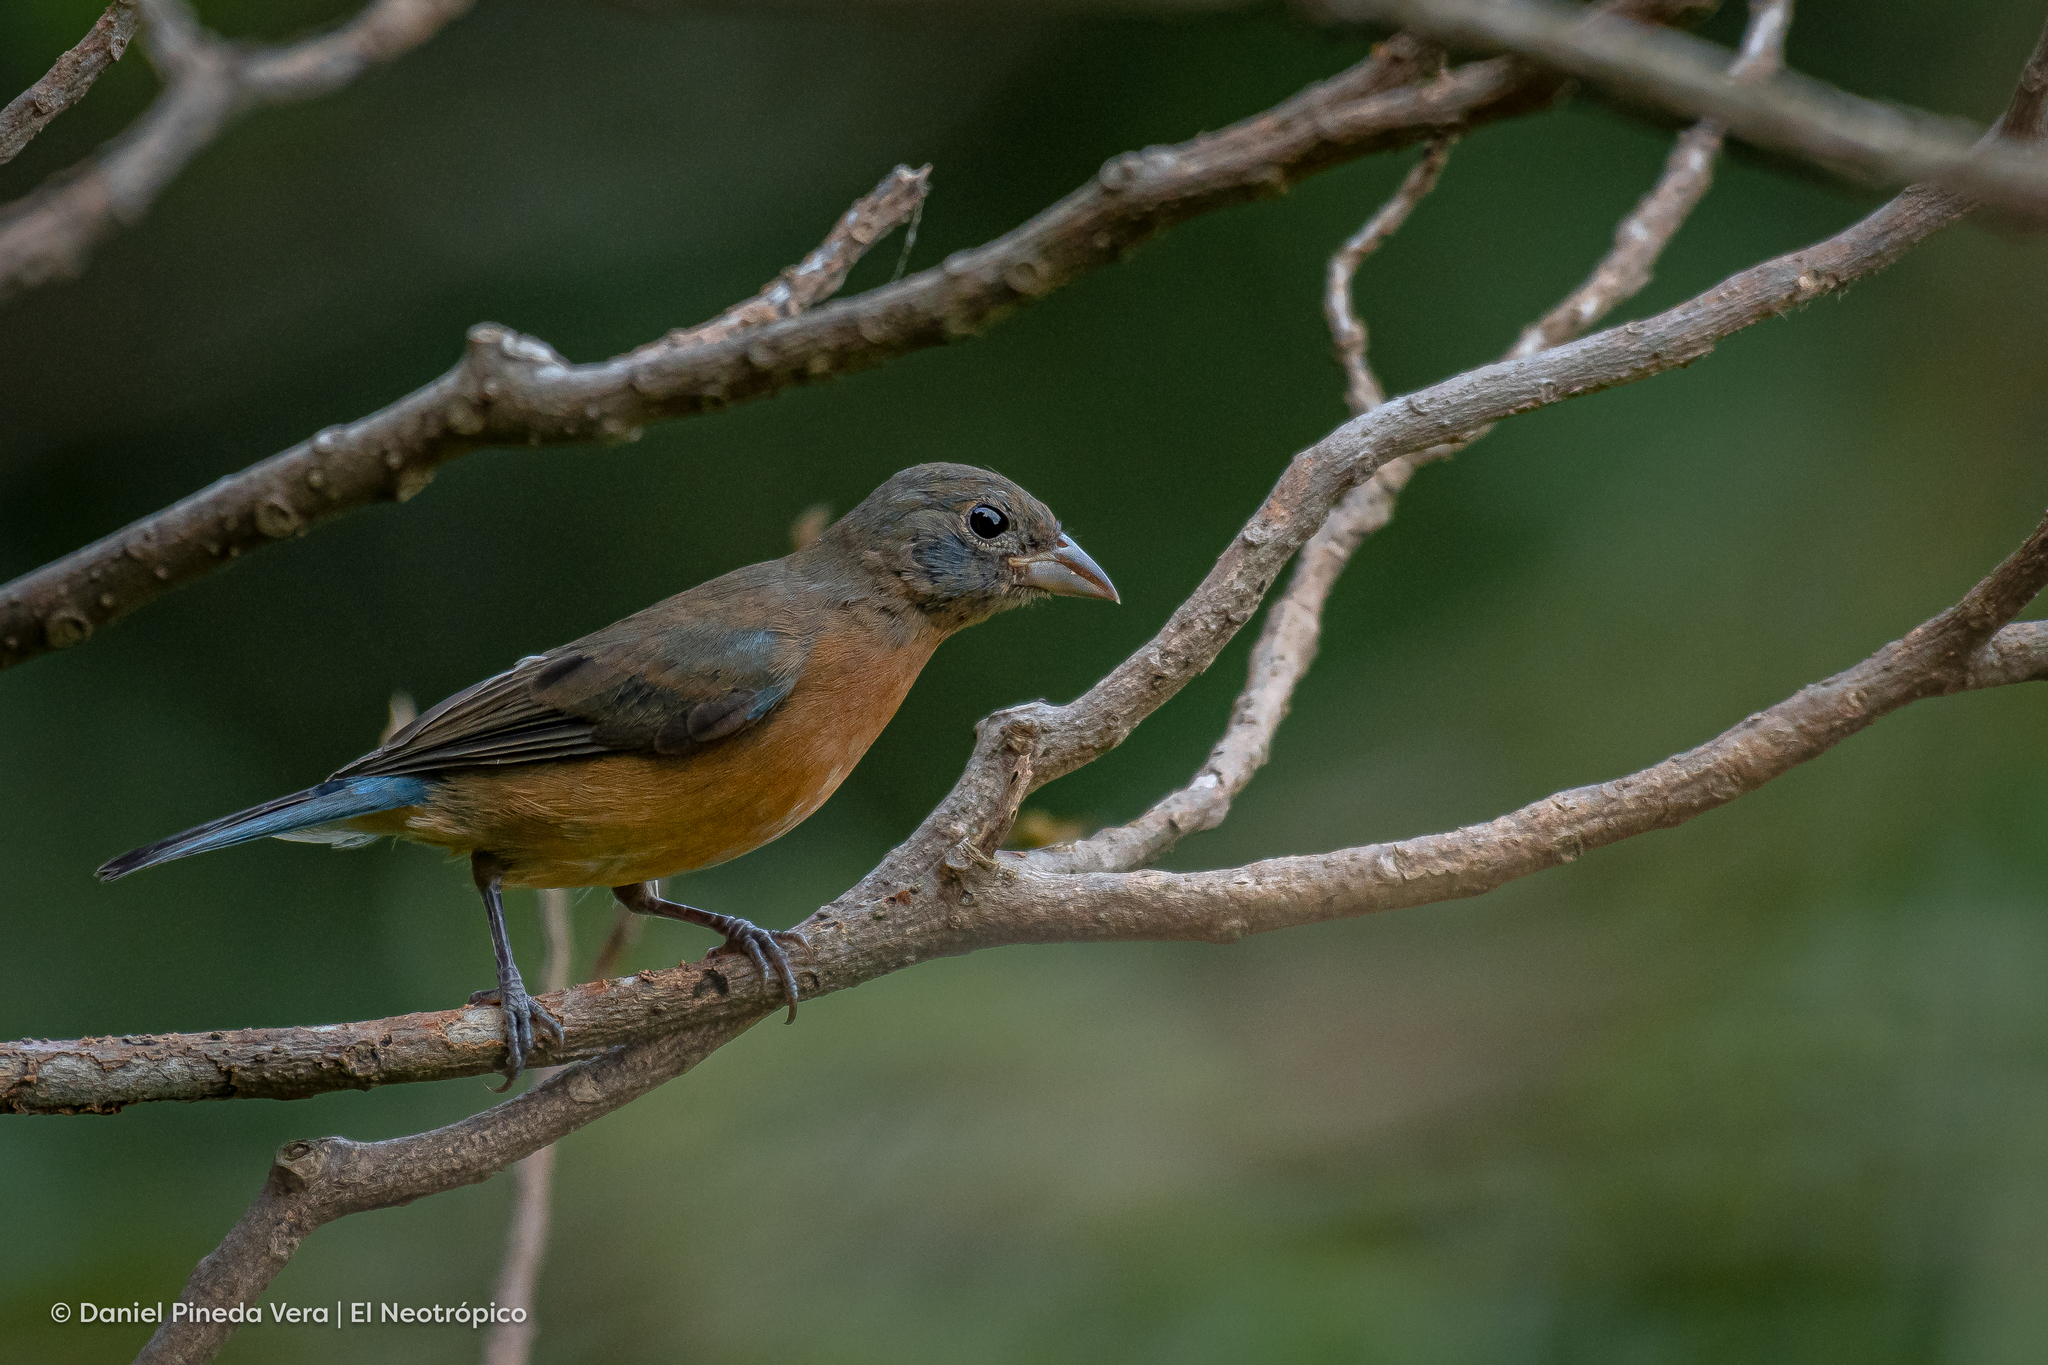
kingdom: Animalia
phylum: Chordata
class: Aves
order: Passeriformes
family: Cardinalidae
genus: Passerina
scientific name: Passerina rositae
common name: Rose-bellied bunting
